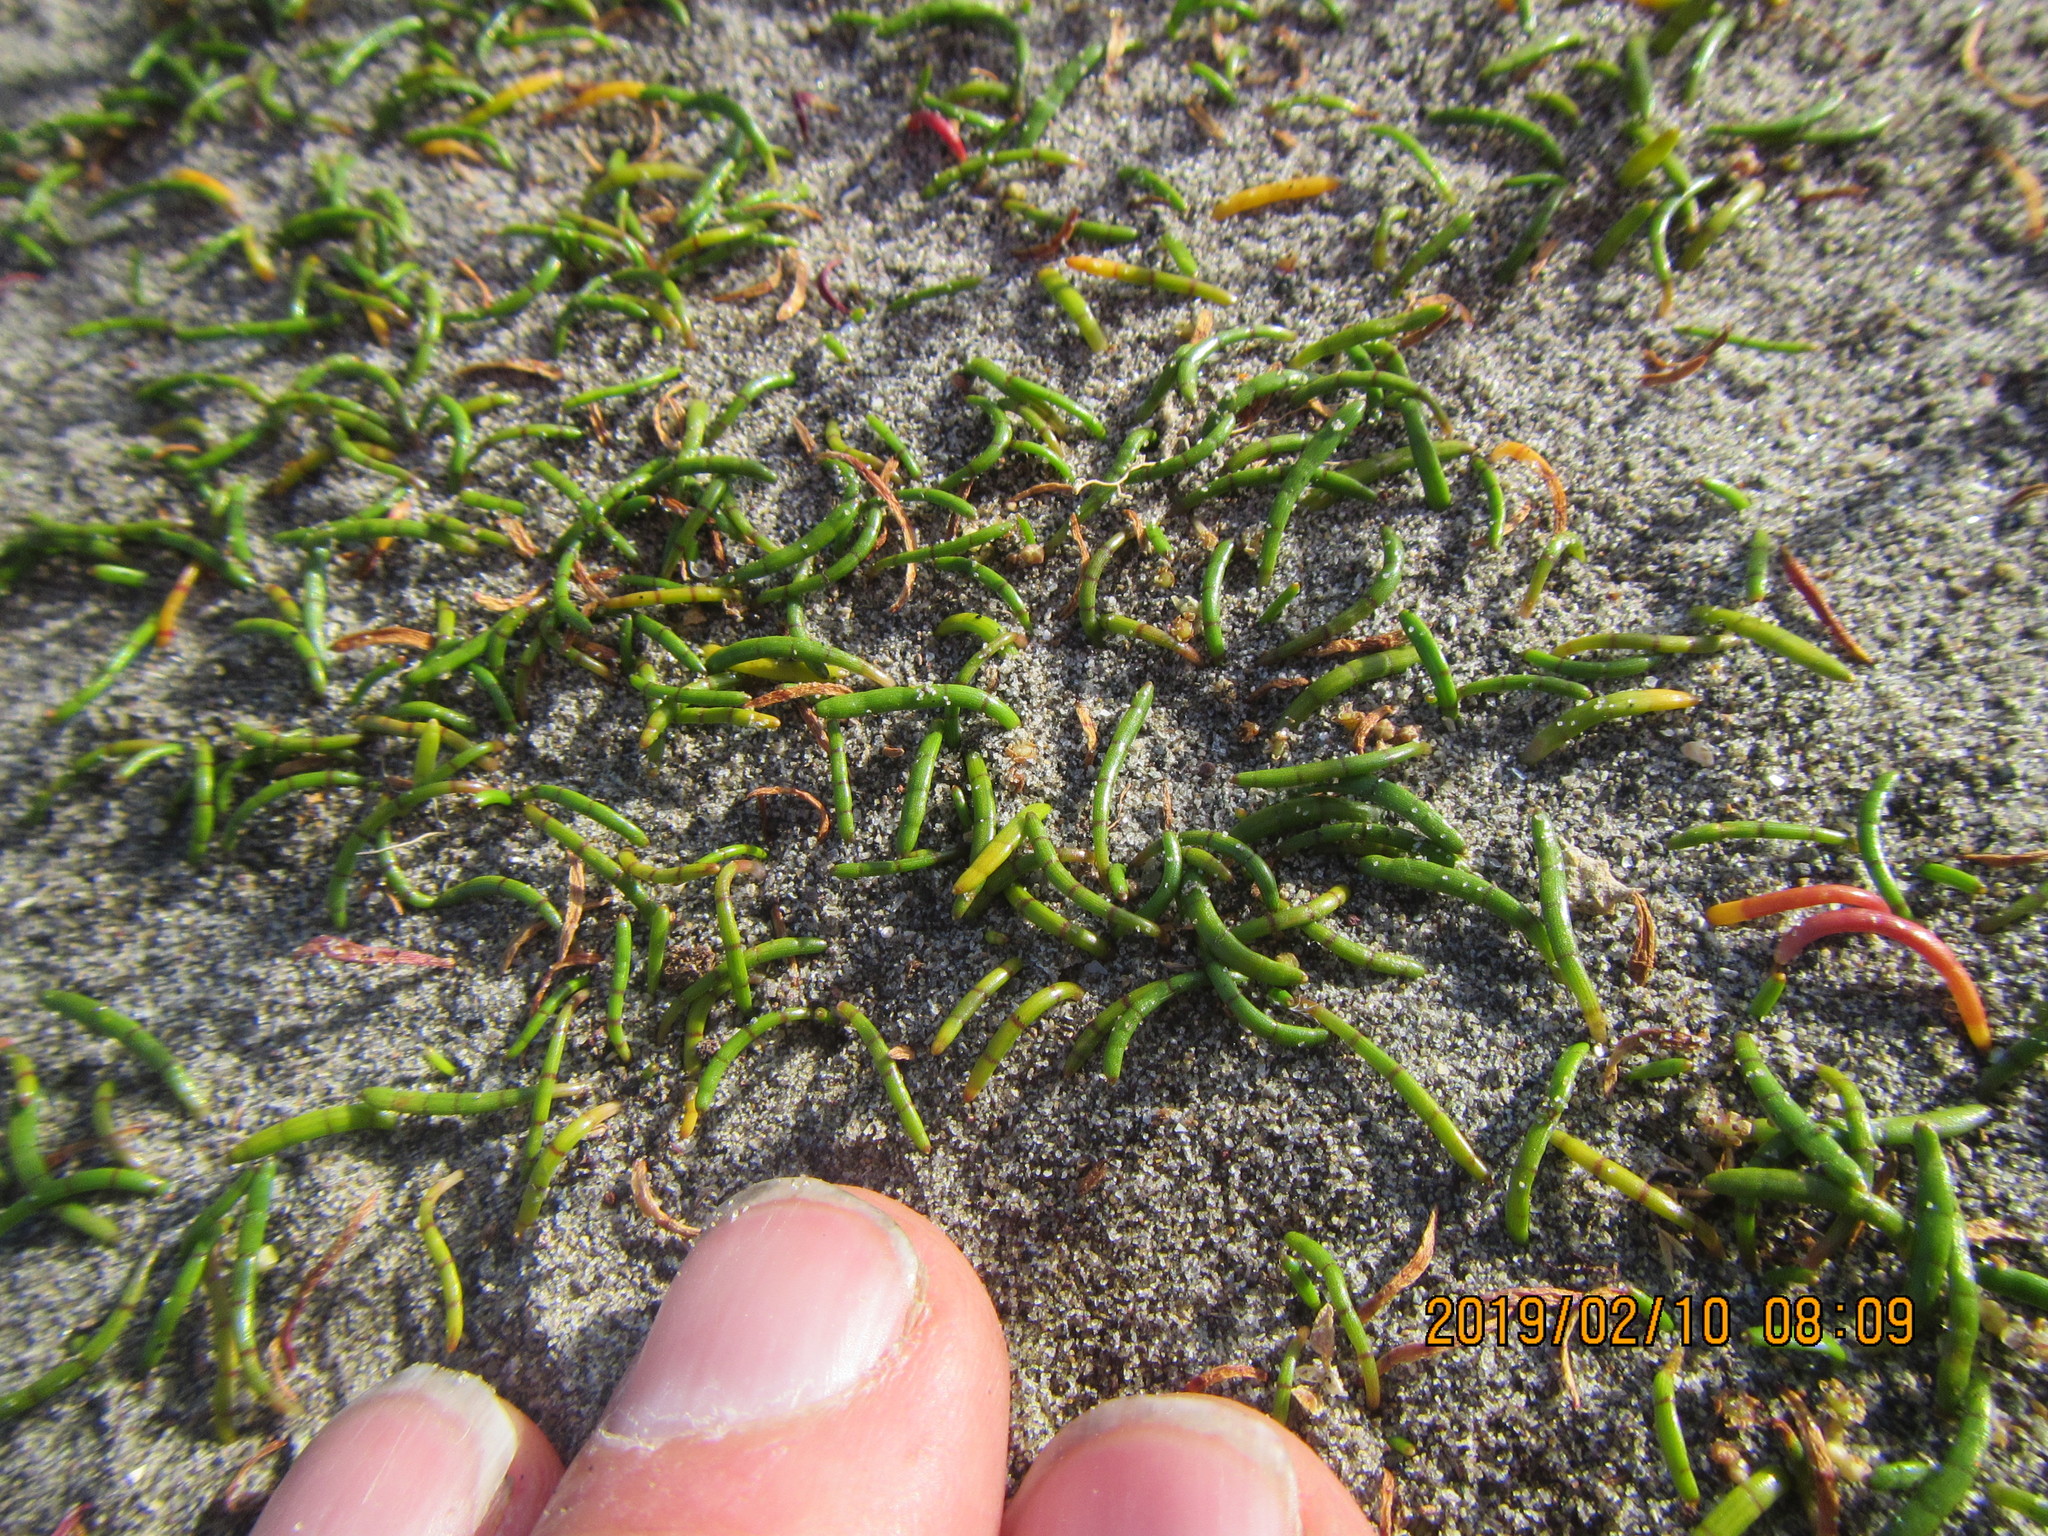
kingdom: Plantae
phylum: Tracheophyta
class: Magnoliopsida
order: Apiales
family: Apiaceae
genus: Lilaeopsis
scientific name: Lilaeopsis novae-zelandiae
